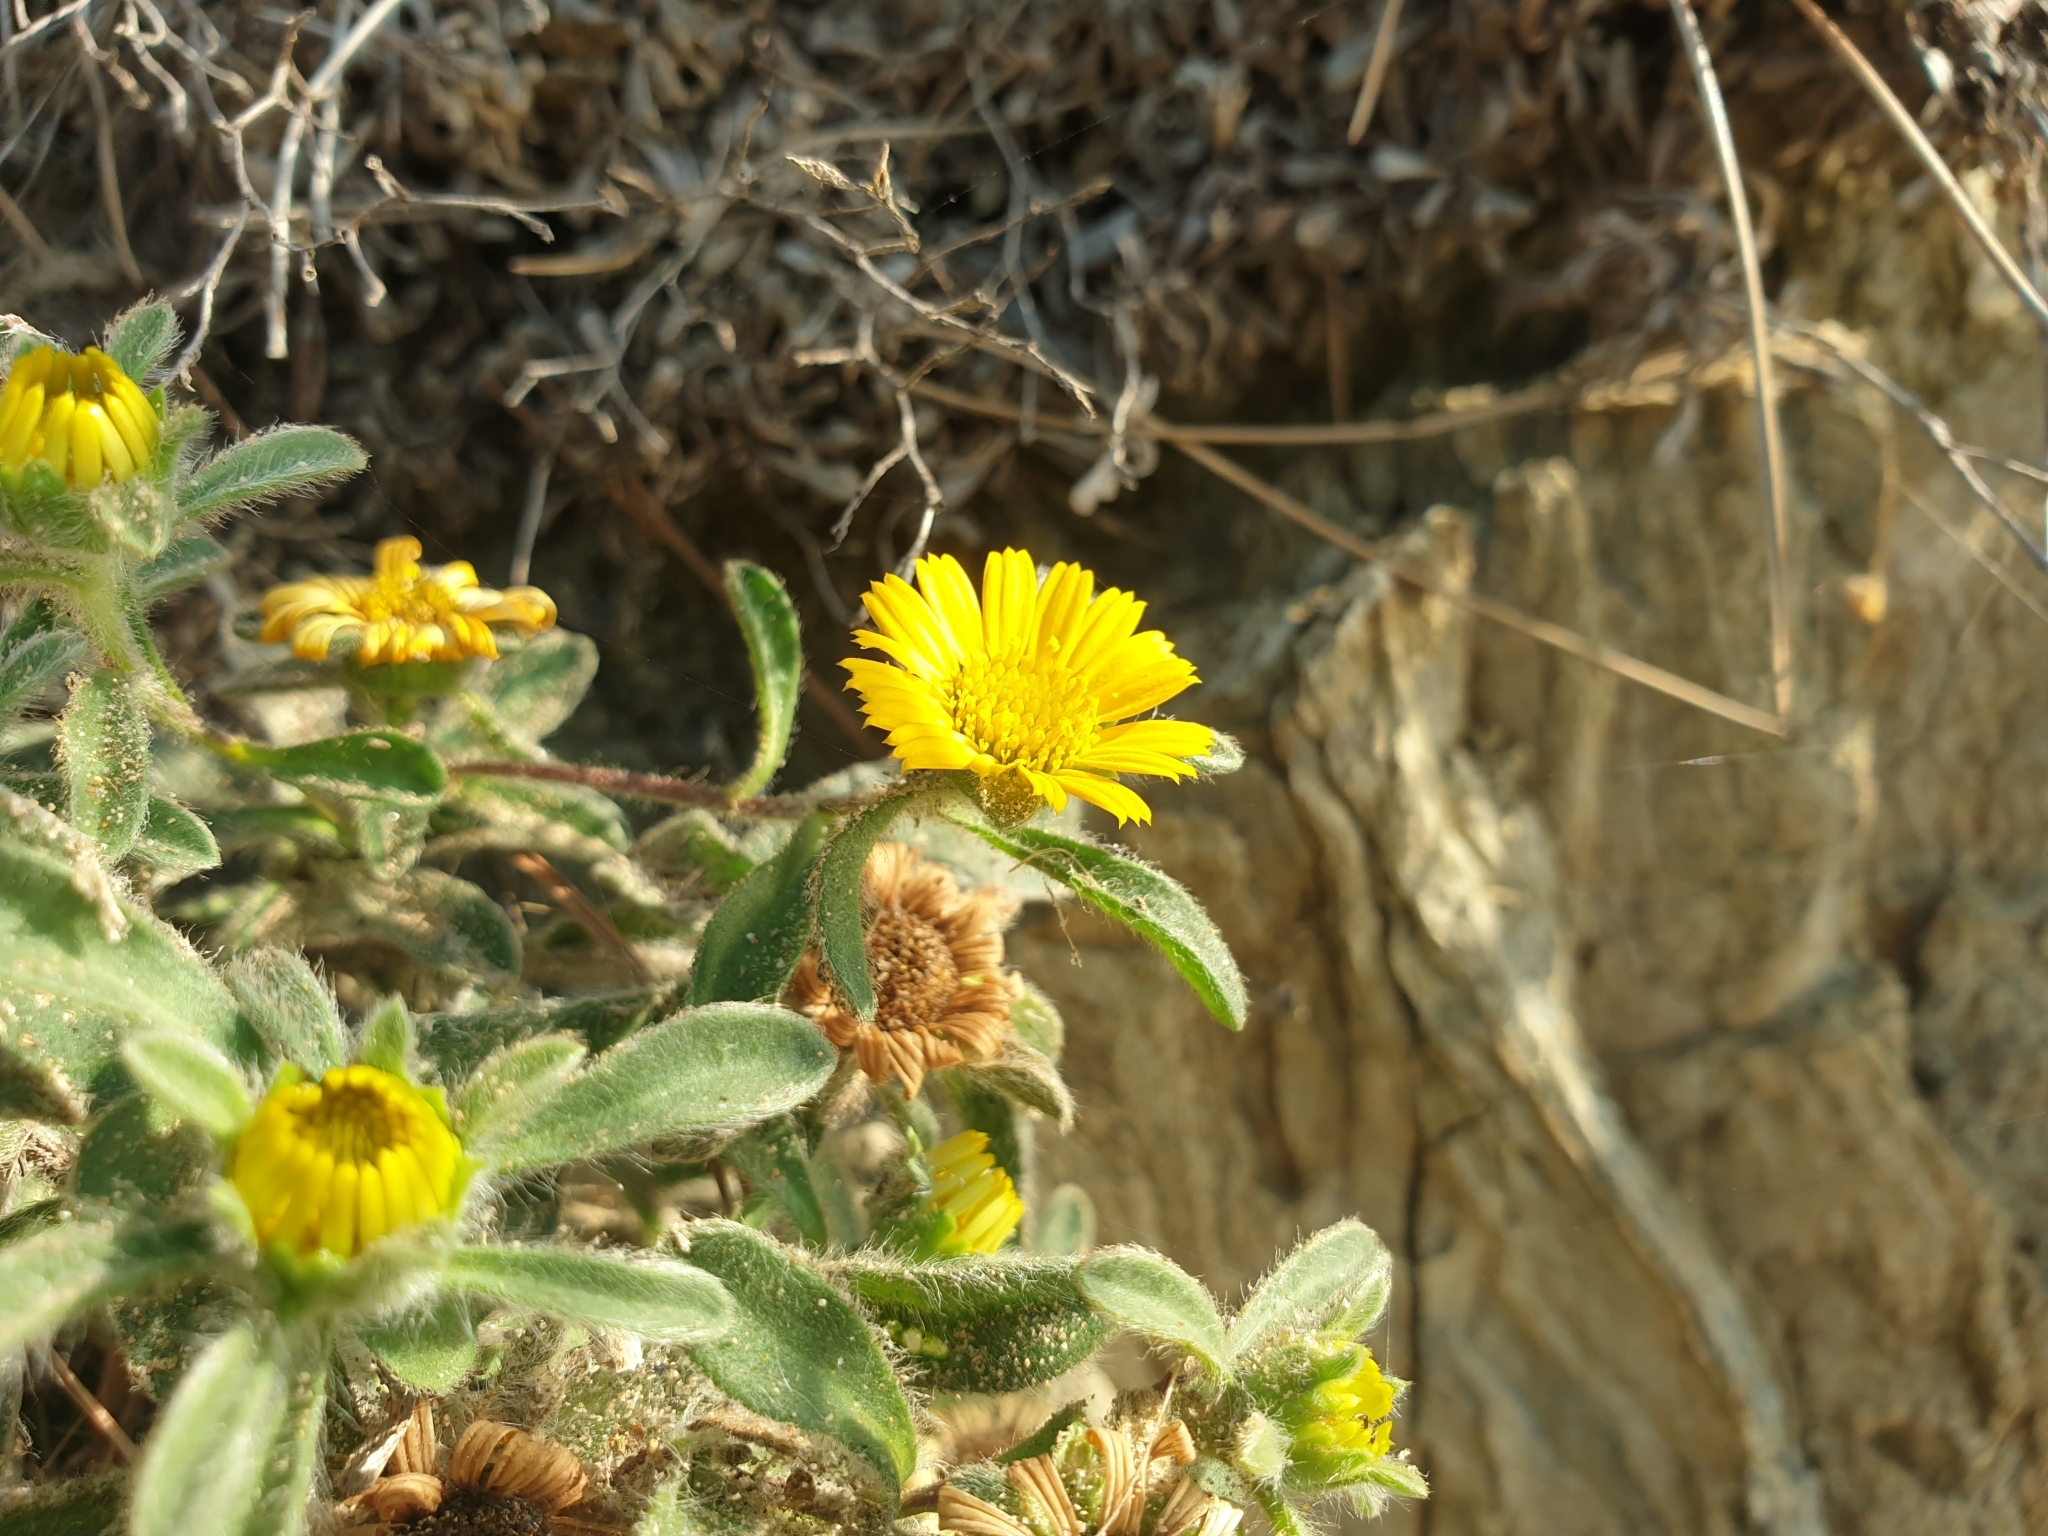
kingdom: Plantae
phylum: Tracheophyta
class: Magnoliopsida
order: Asterales
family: Asteraceae
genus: Pallenis
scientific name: Pallenis maritima
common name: Golden coin daisy
